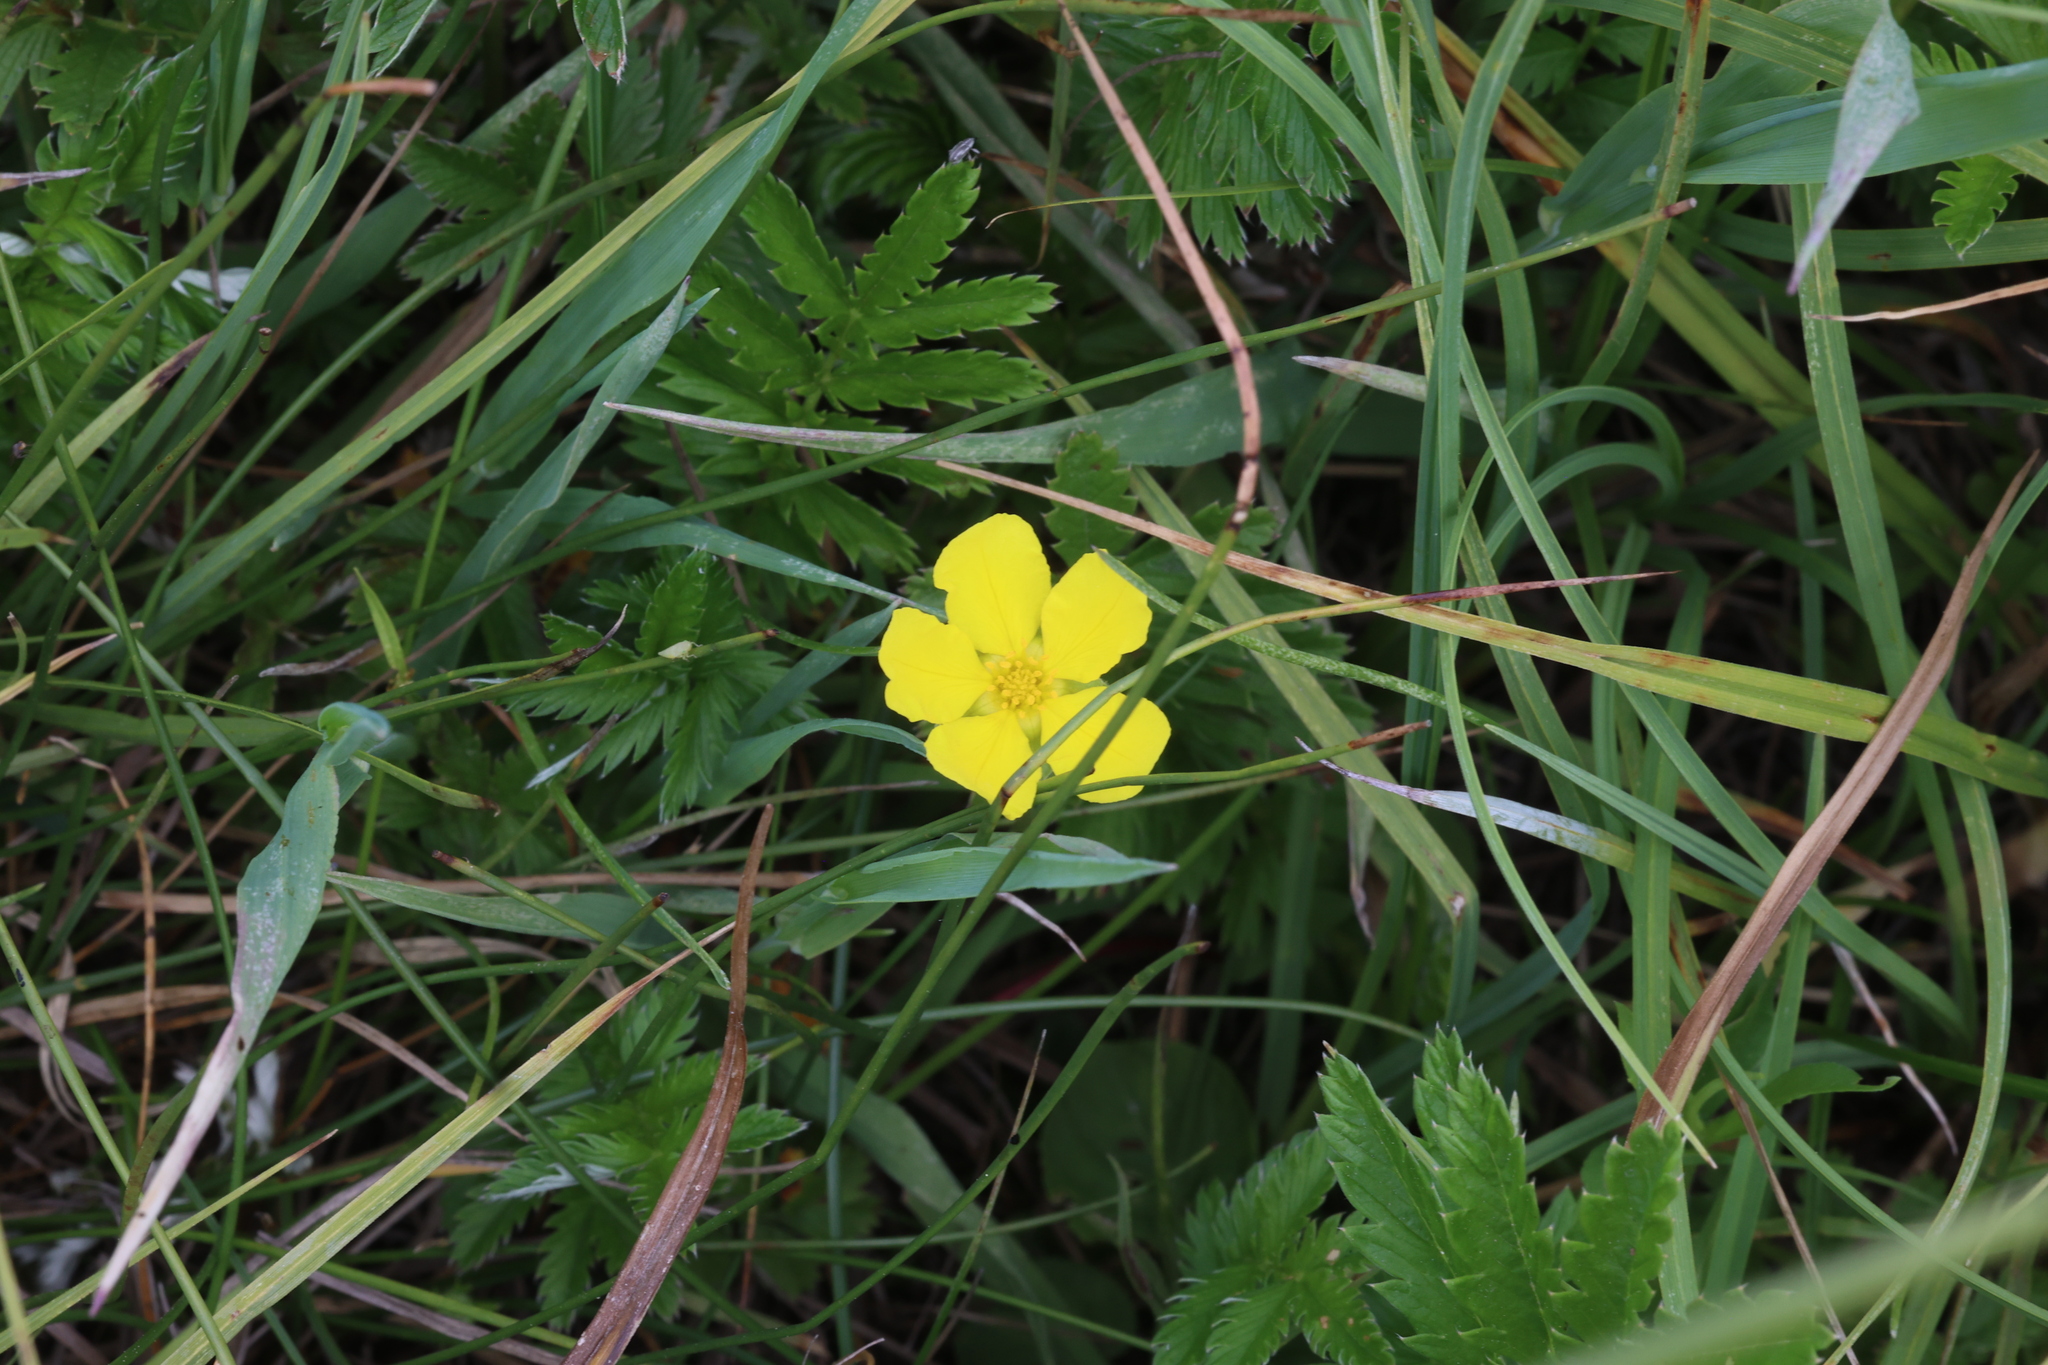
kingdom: Plantae
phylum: Tracheophyta
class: Magnoliopsida
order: Rosales
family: Rosaceae
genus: Argentina
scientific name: Argentina anserina
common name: Common silverweed
